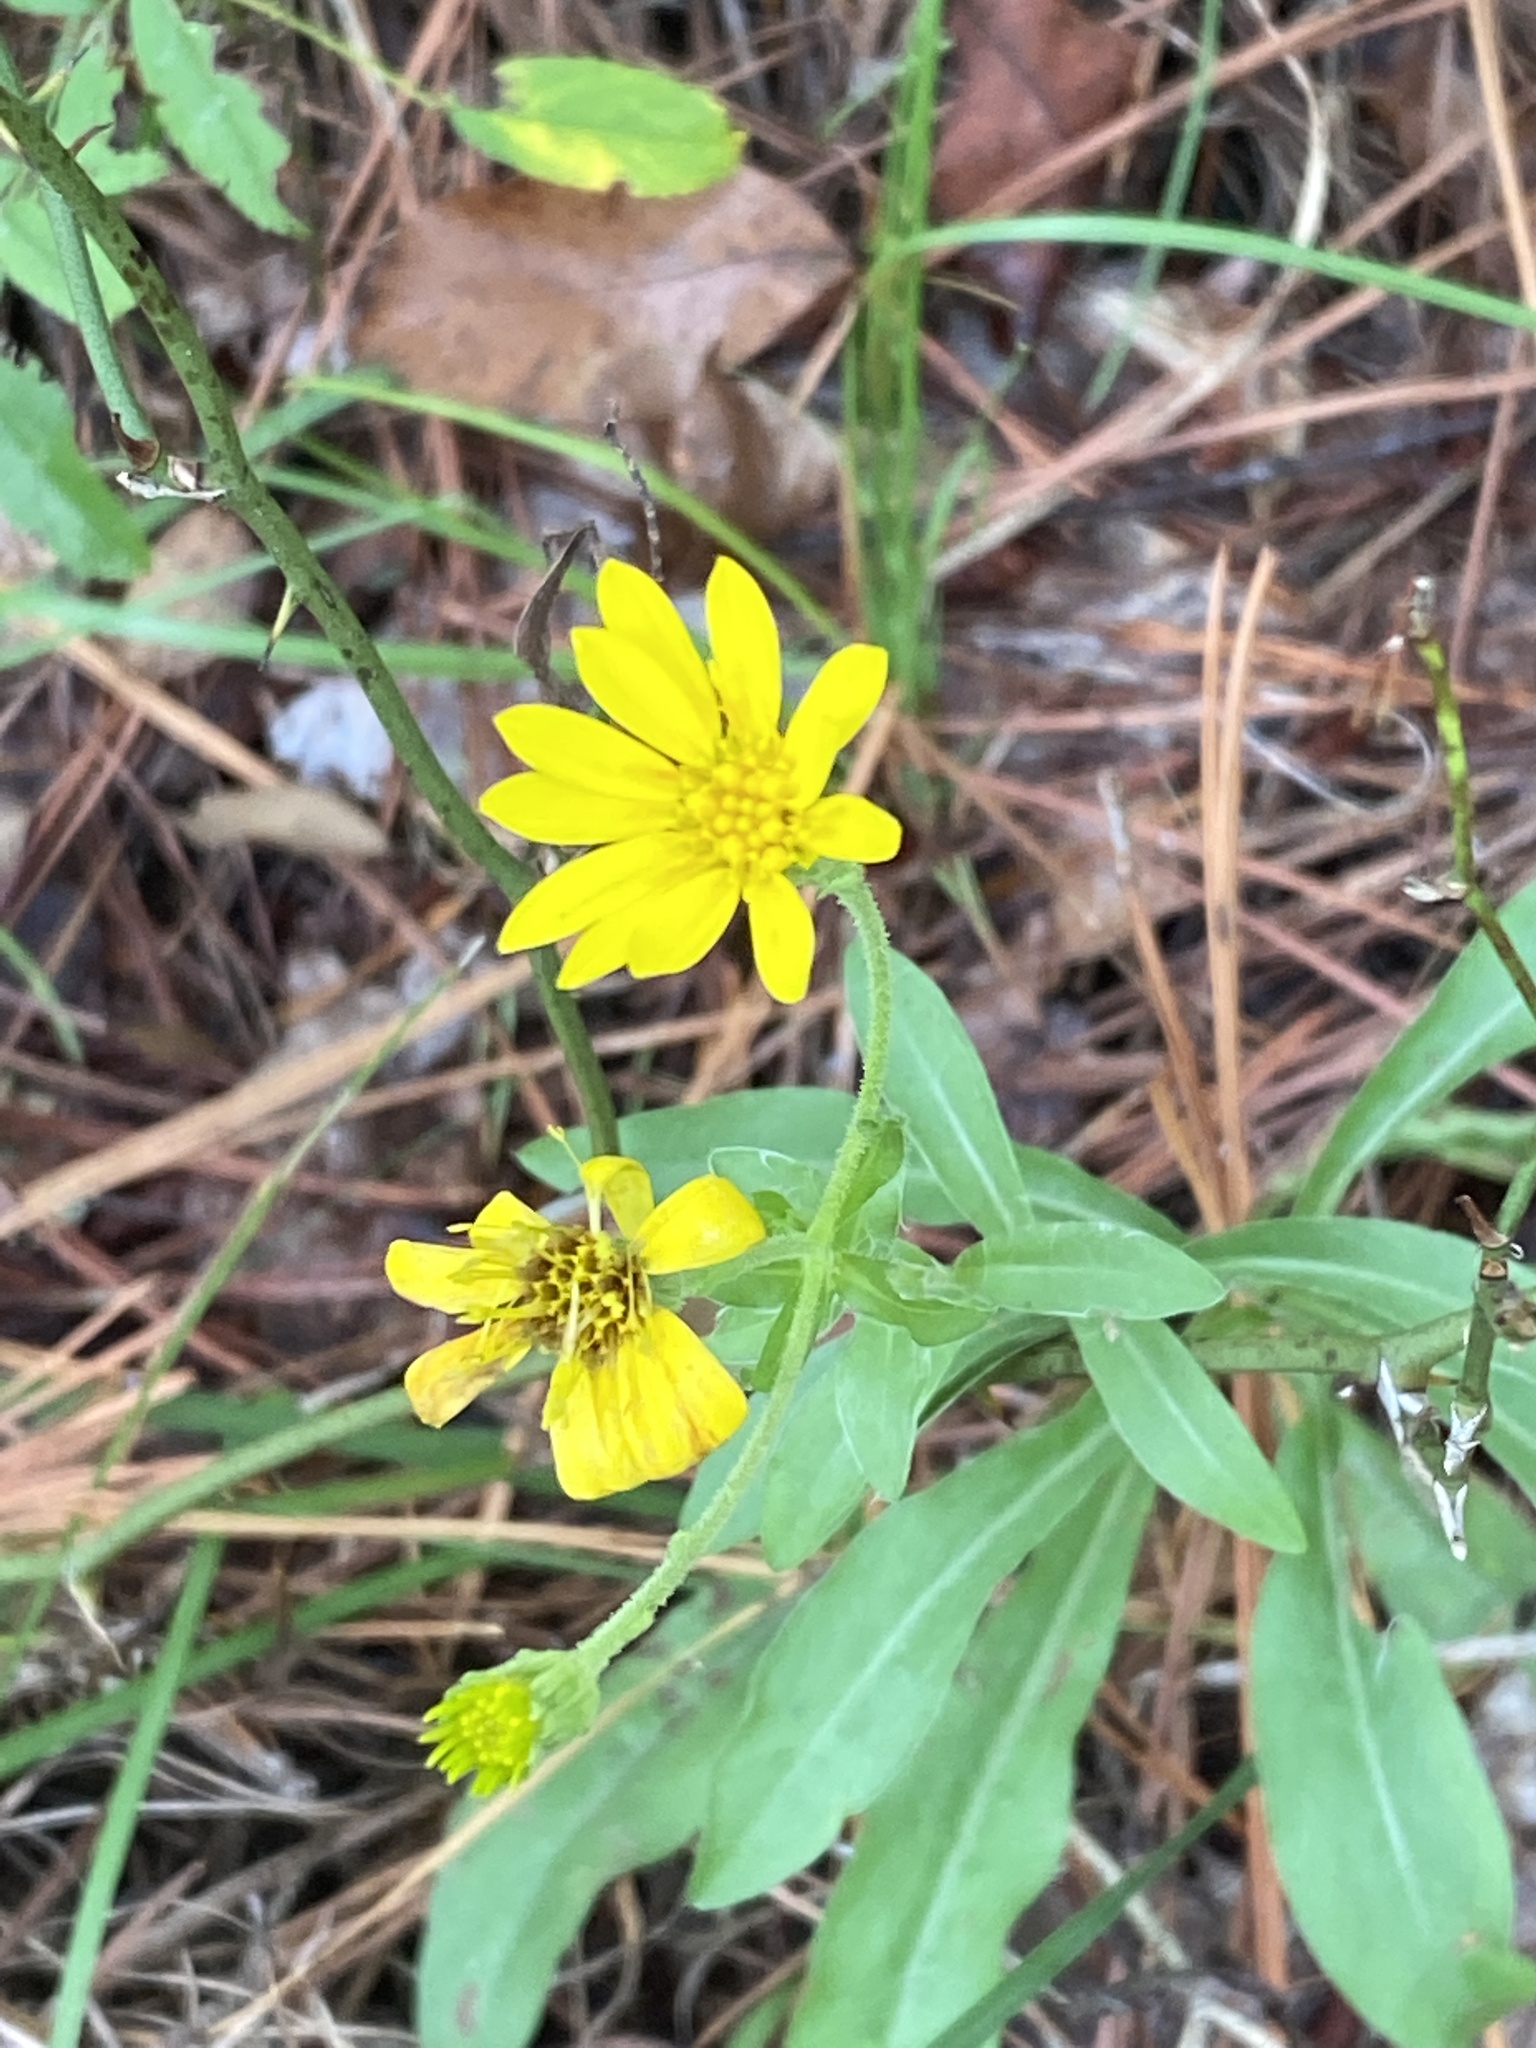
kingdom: Plantae
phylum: Tracheophyta
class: Magnoliopsida
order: Asterales
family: Asteraceae
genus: Chrysopsis
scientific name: Chrysopsis mariana
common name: Maryland golden-aster
